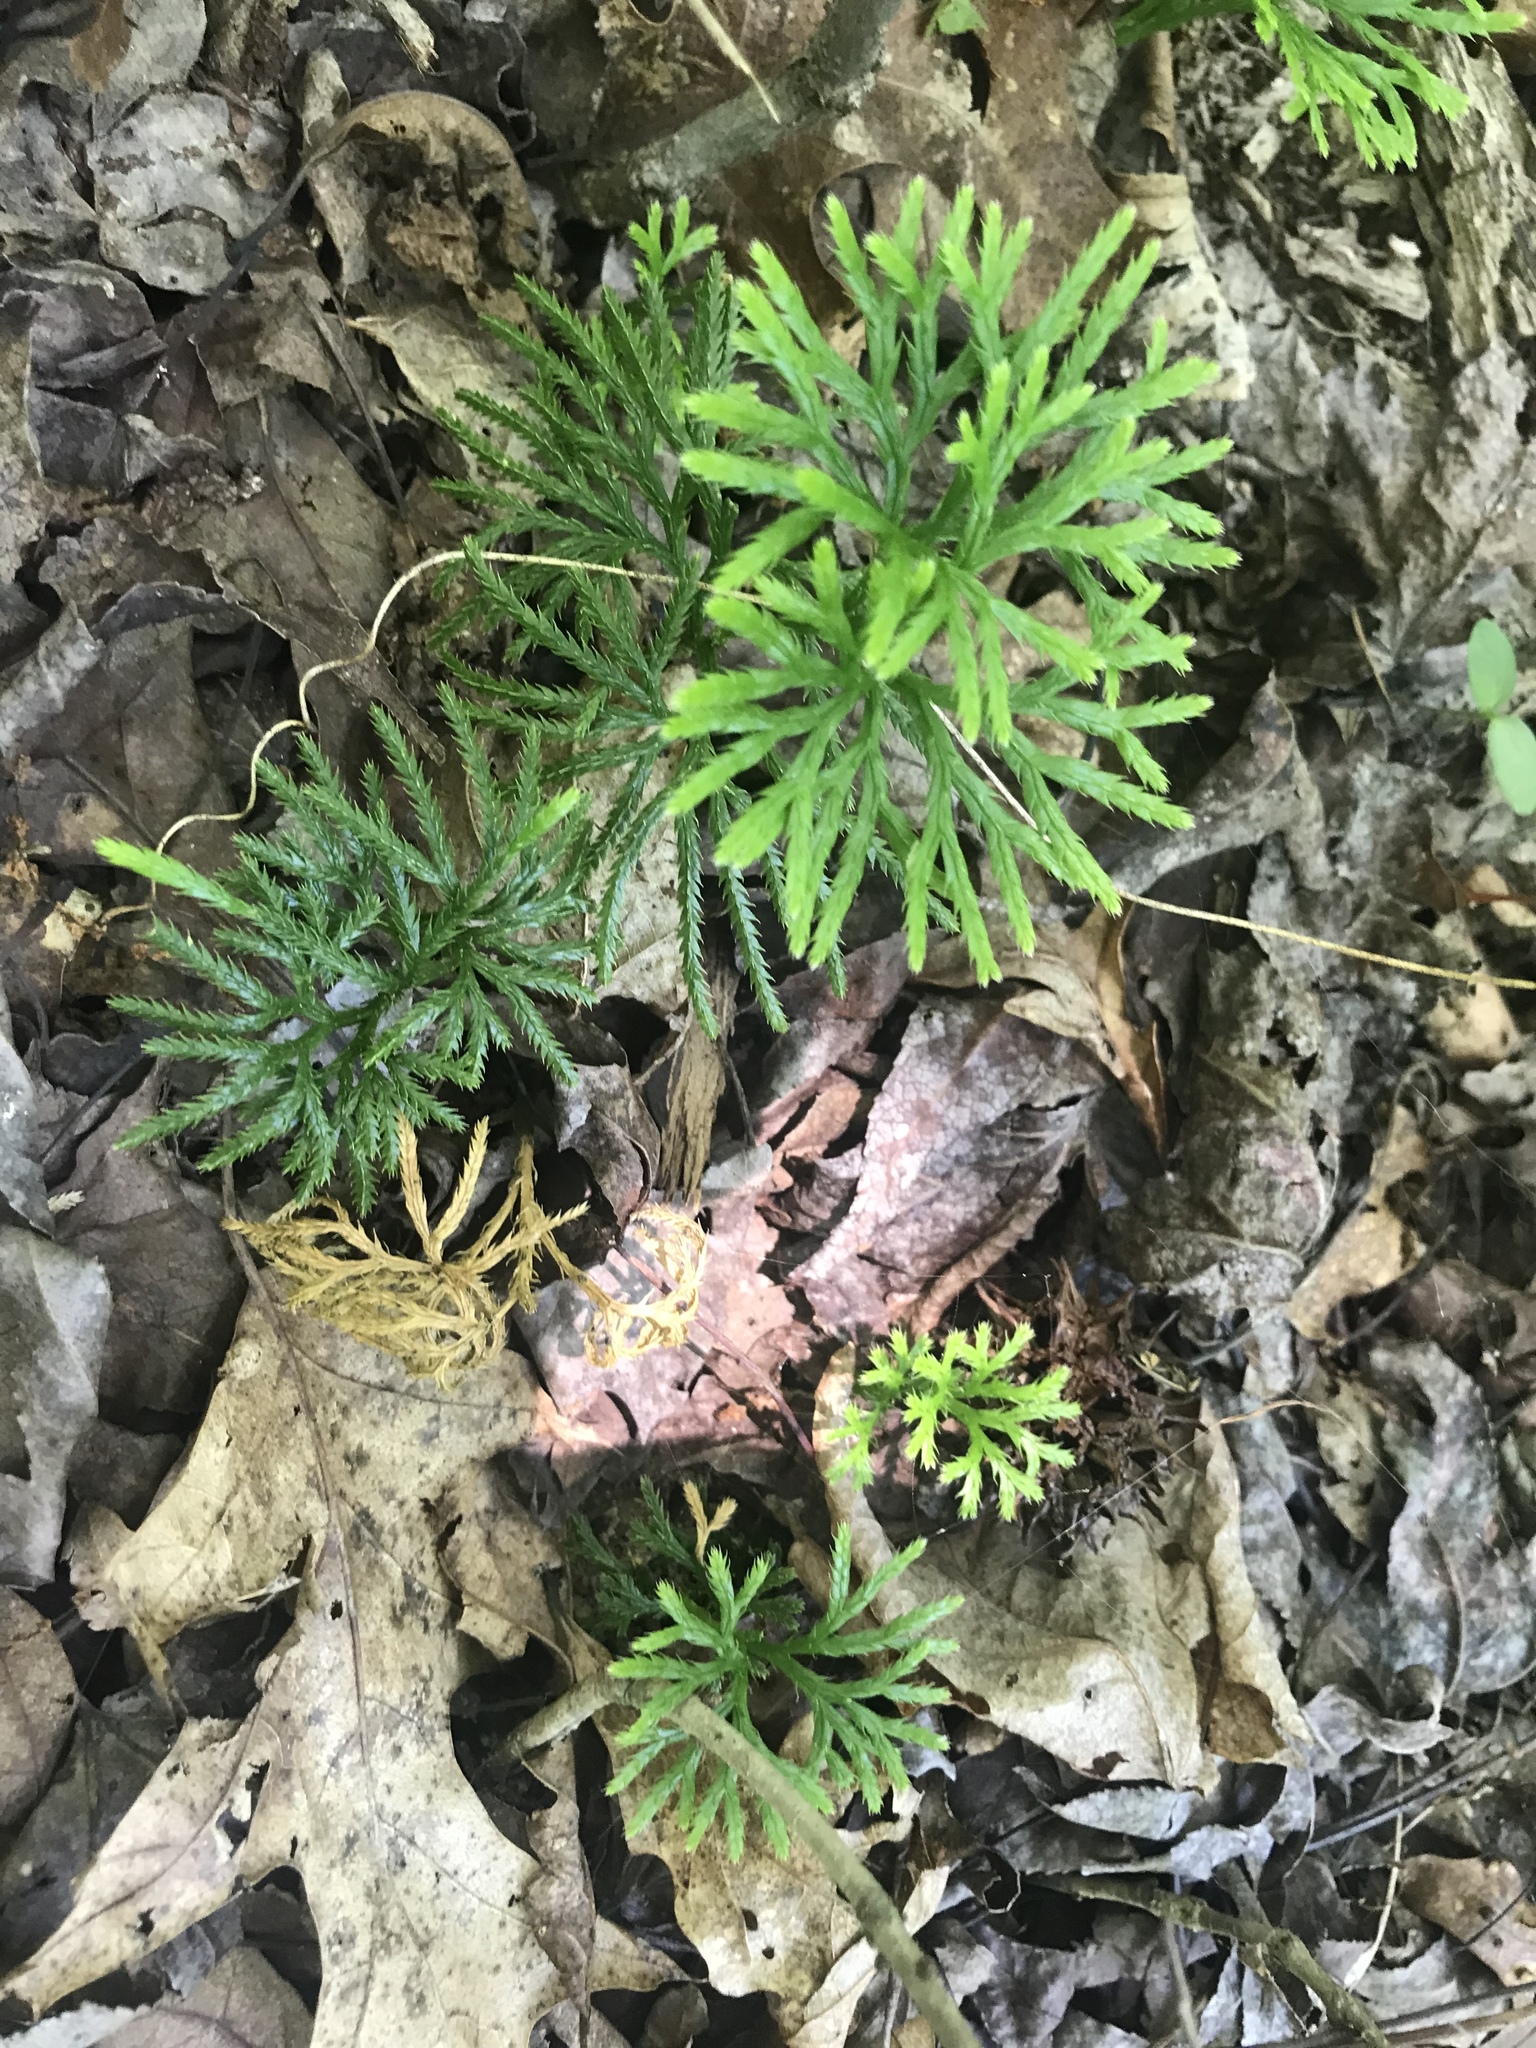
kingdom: Plantae
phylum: Tracheophyta
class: Lycopodiopsida
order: Lycopodiales
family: Lycopodiaceae
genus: Diphasiastrum
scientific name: Diphasiastrum digitatum
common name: Southern running-pine
